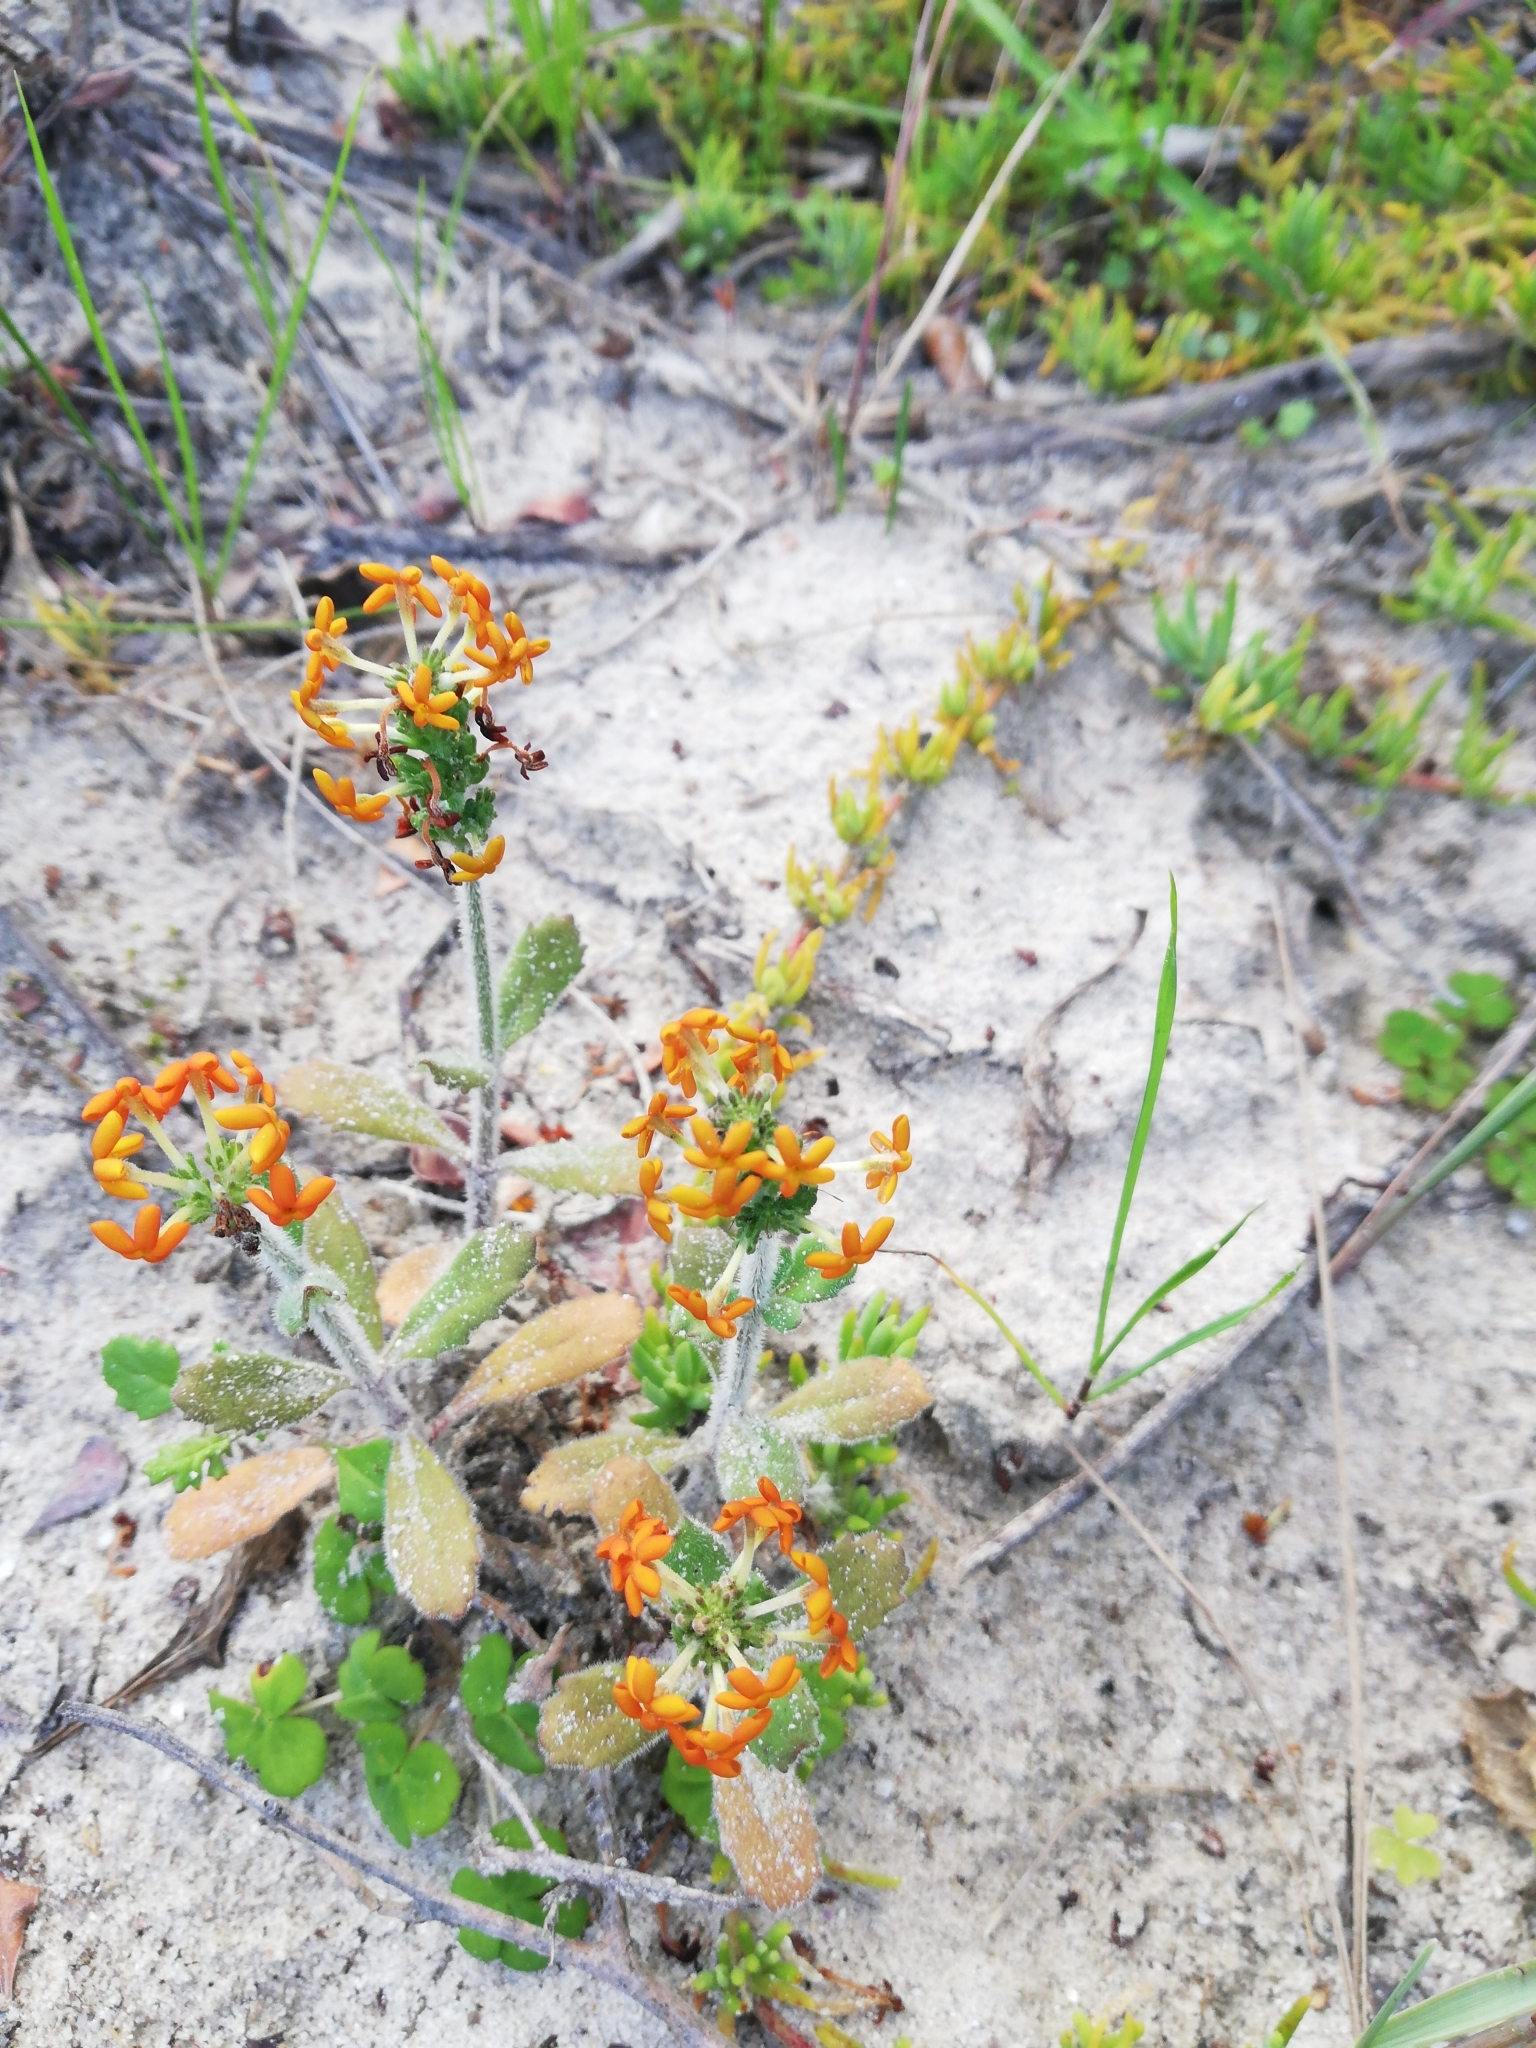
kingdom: Plantae
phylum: Tracheophyta
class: Magnoliopsida
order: Lamiales
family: Scrophulariaceae
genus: Manulea
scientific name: Manulea tomentosa
